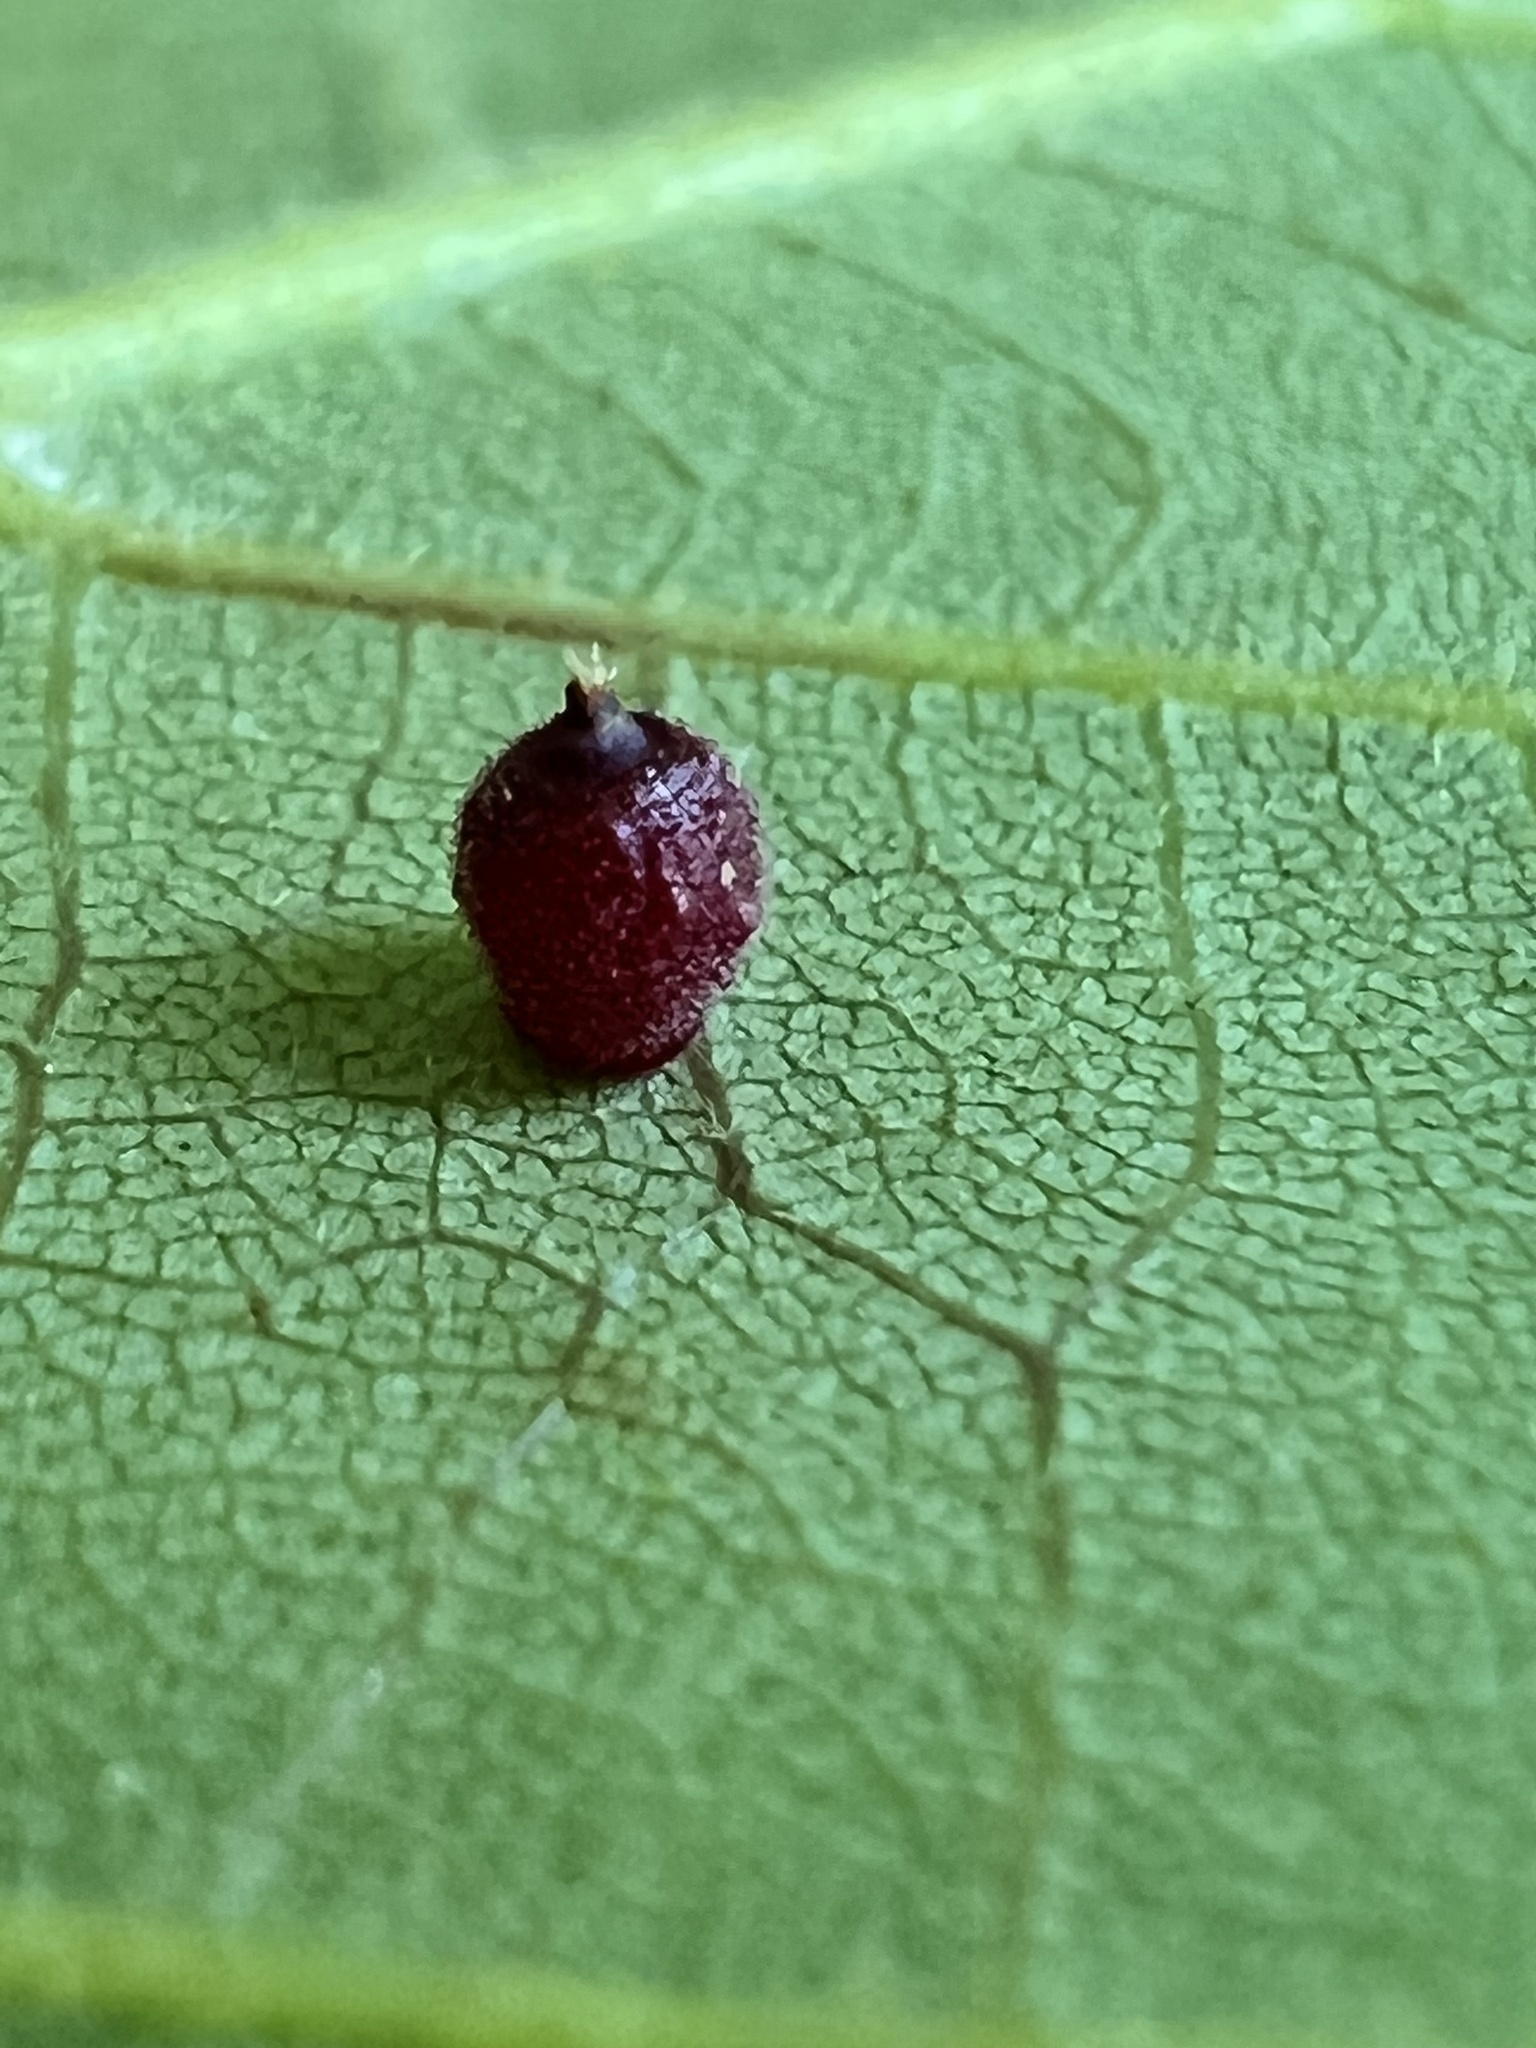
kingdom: Animalia
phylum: Arthropoda
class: Insecta
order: Diptera
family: Cecidomyiidae
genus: Caryomyia
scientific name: Caryomyia viscidolium
